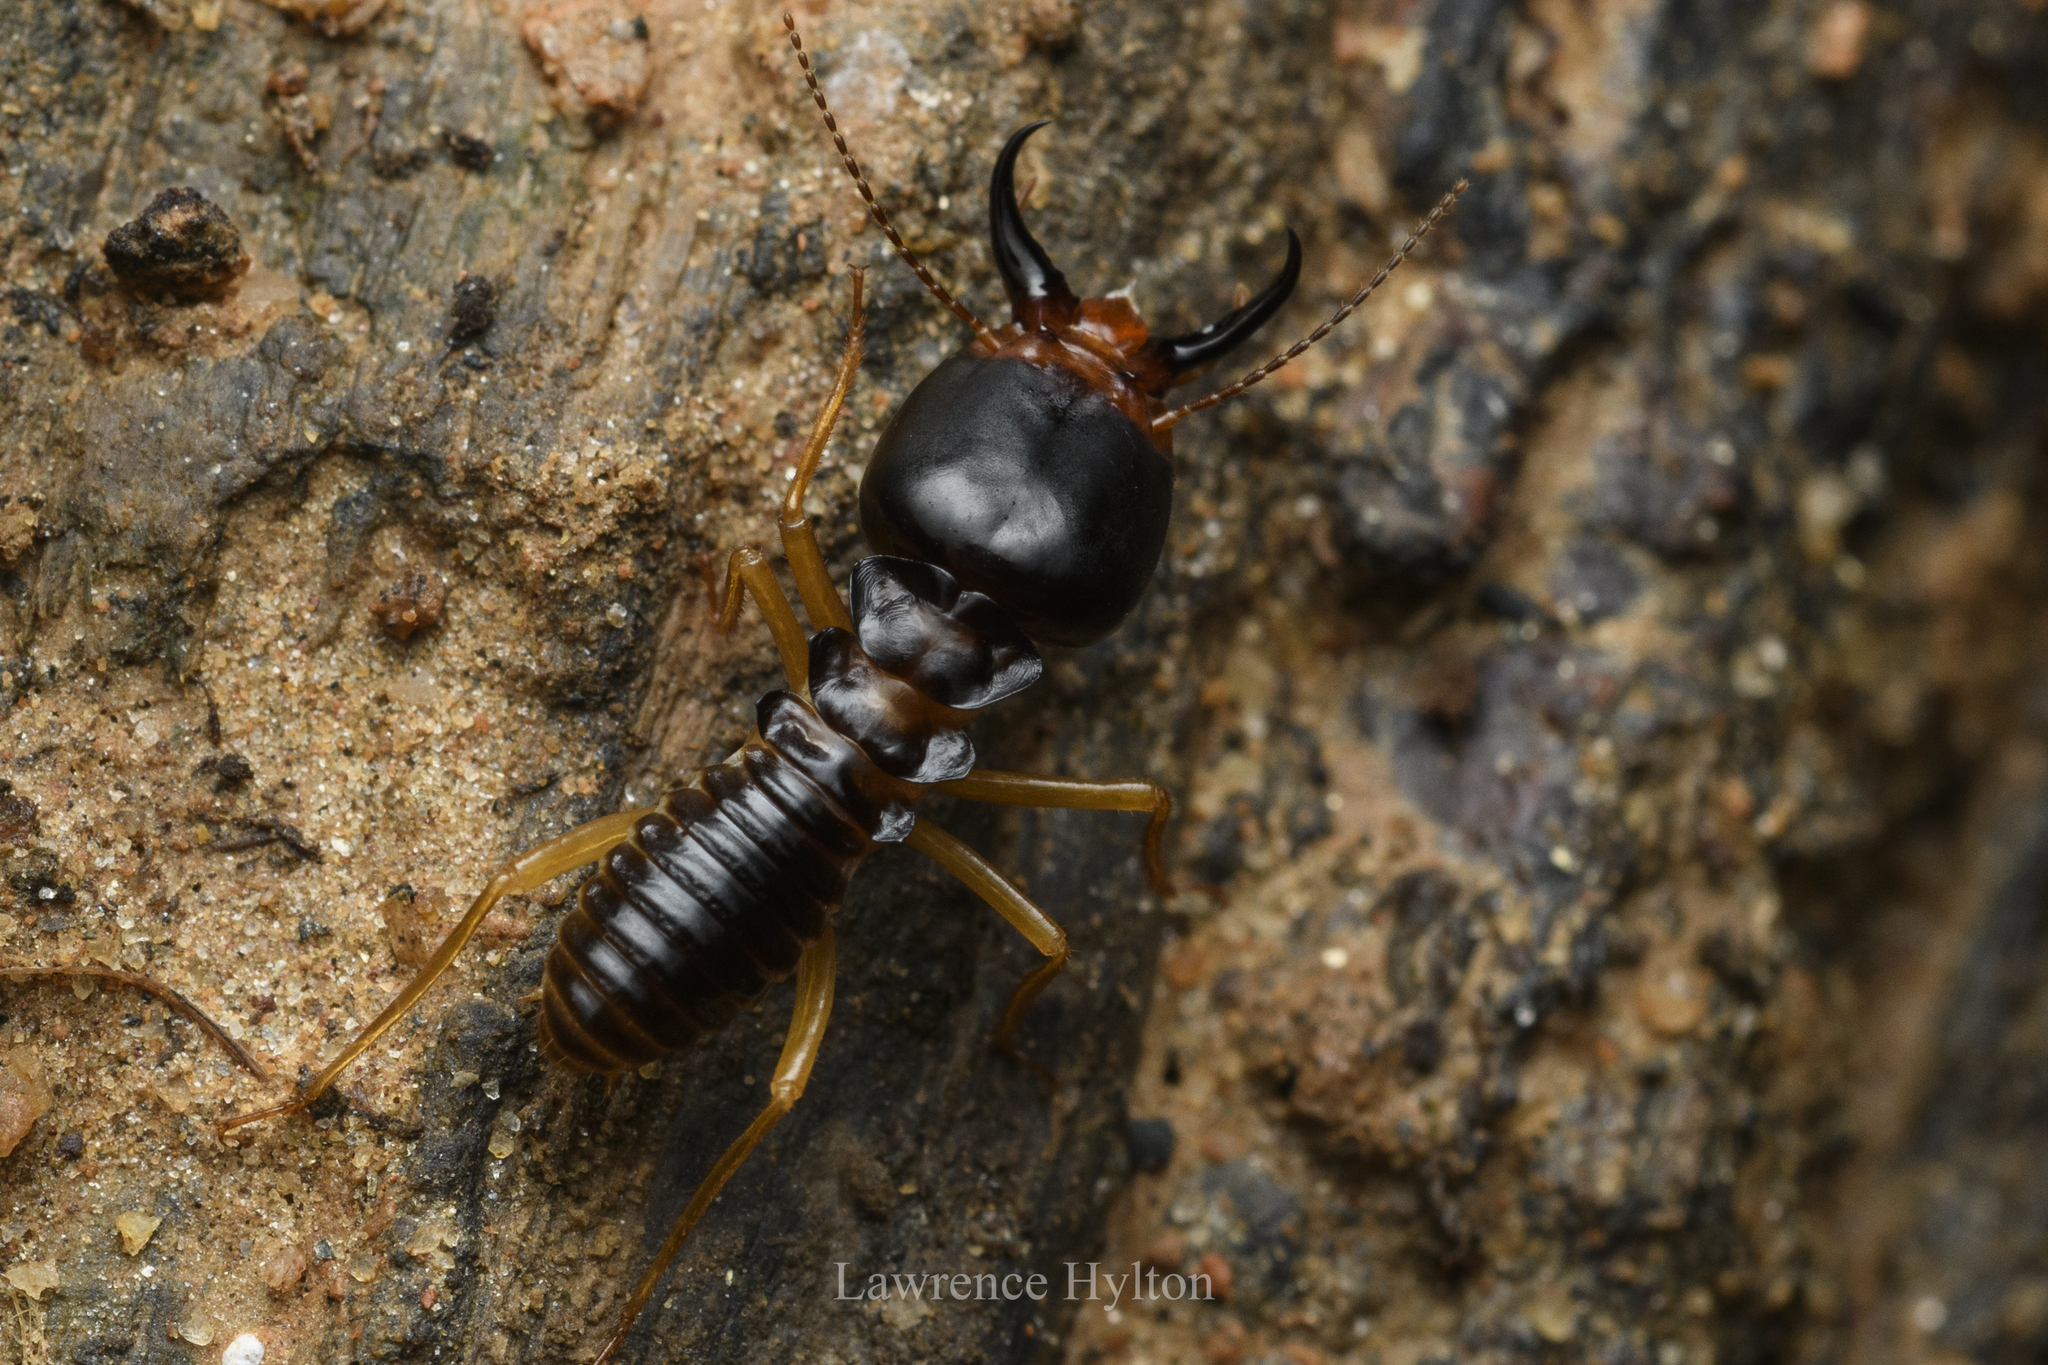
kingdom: Animalia
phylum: Arthropoda
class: Insecta
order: Blattodea
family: Termitidae
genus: Macrotermes
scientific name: Macrotermes carbonarius
